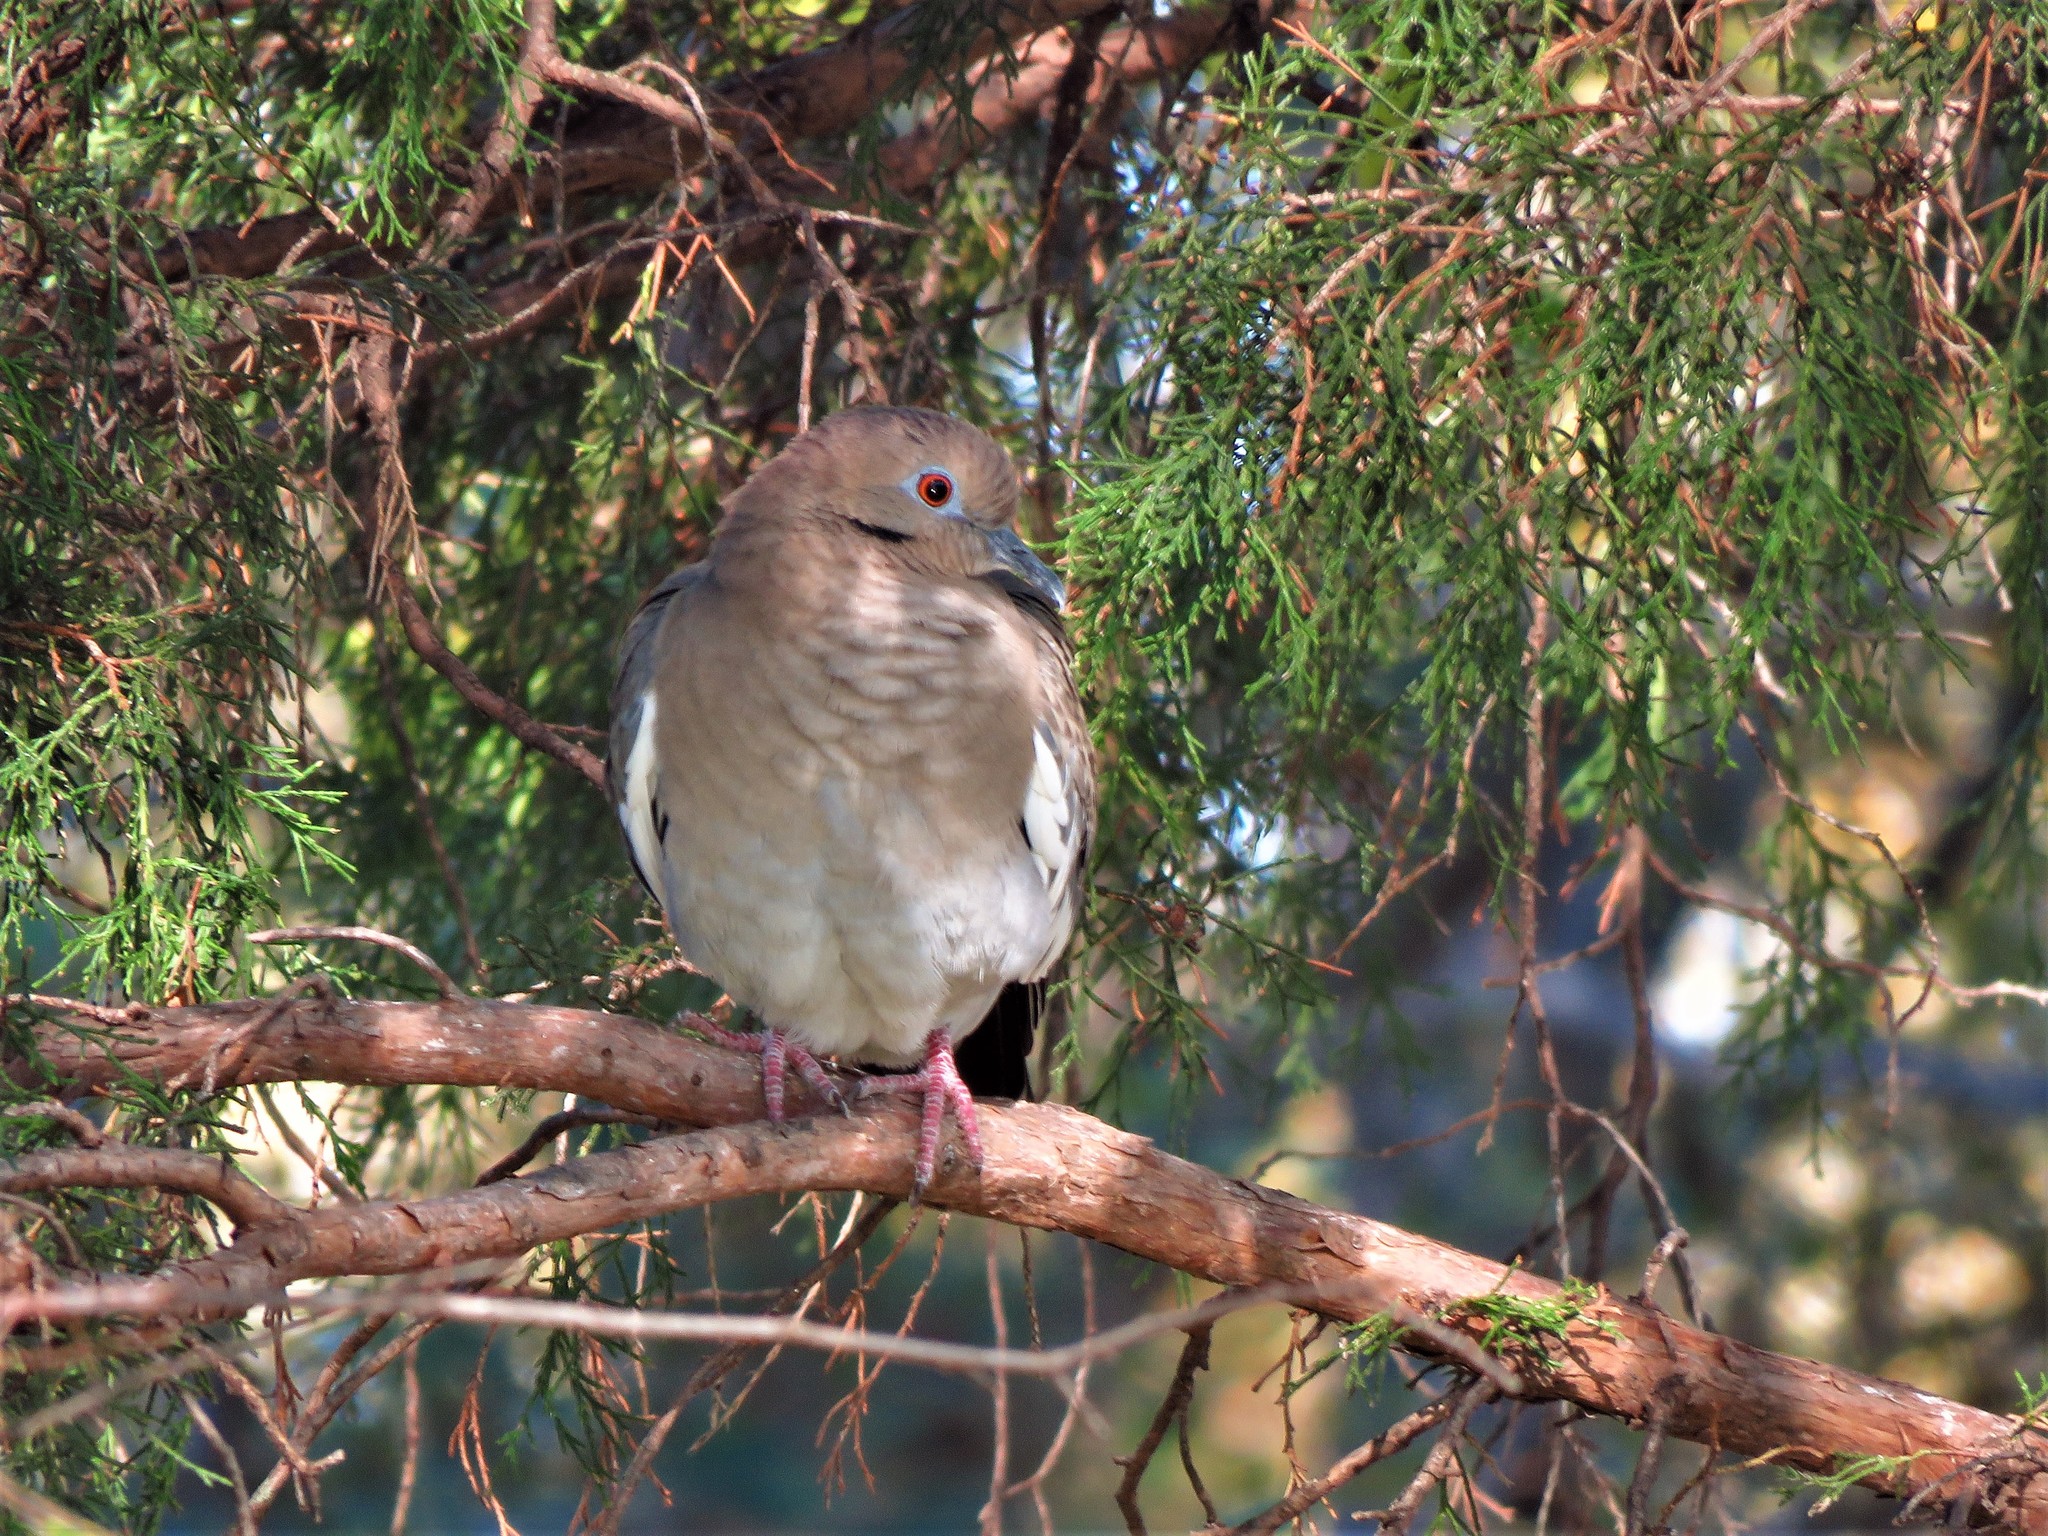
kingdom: Animalia
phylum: Chordata
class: Aves
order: Columbiformes
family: Columbidae
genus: Zenaida
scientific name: Zenaida asiatica
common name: White-winged dove
